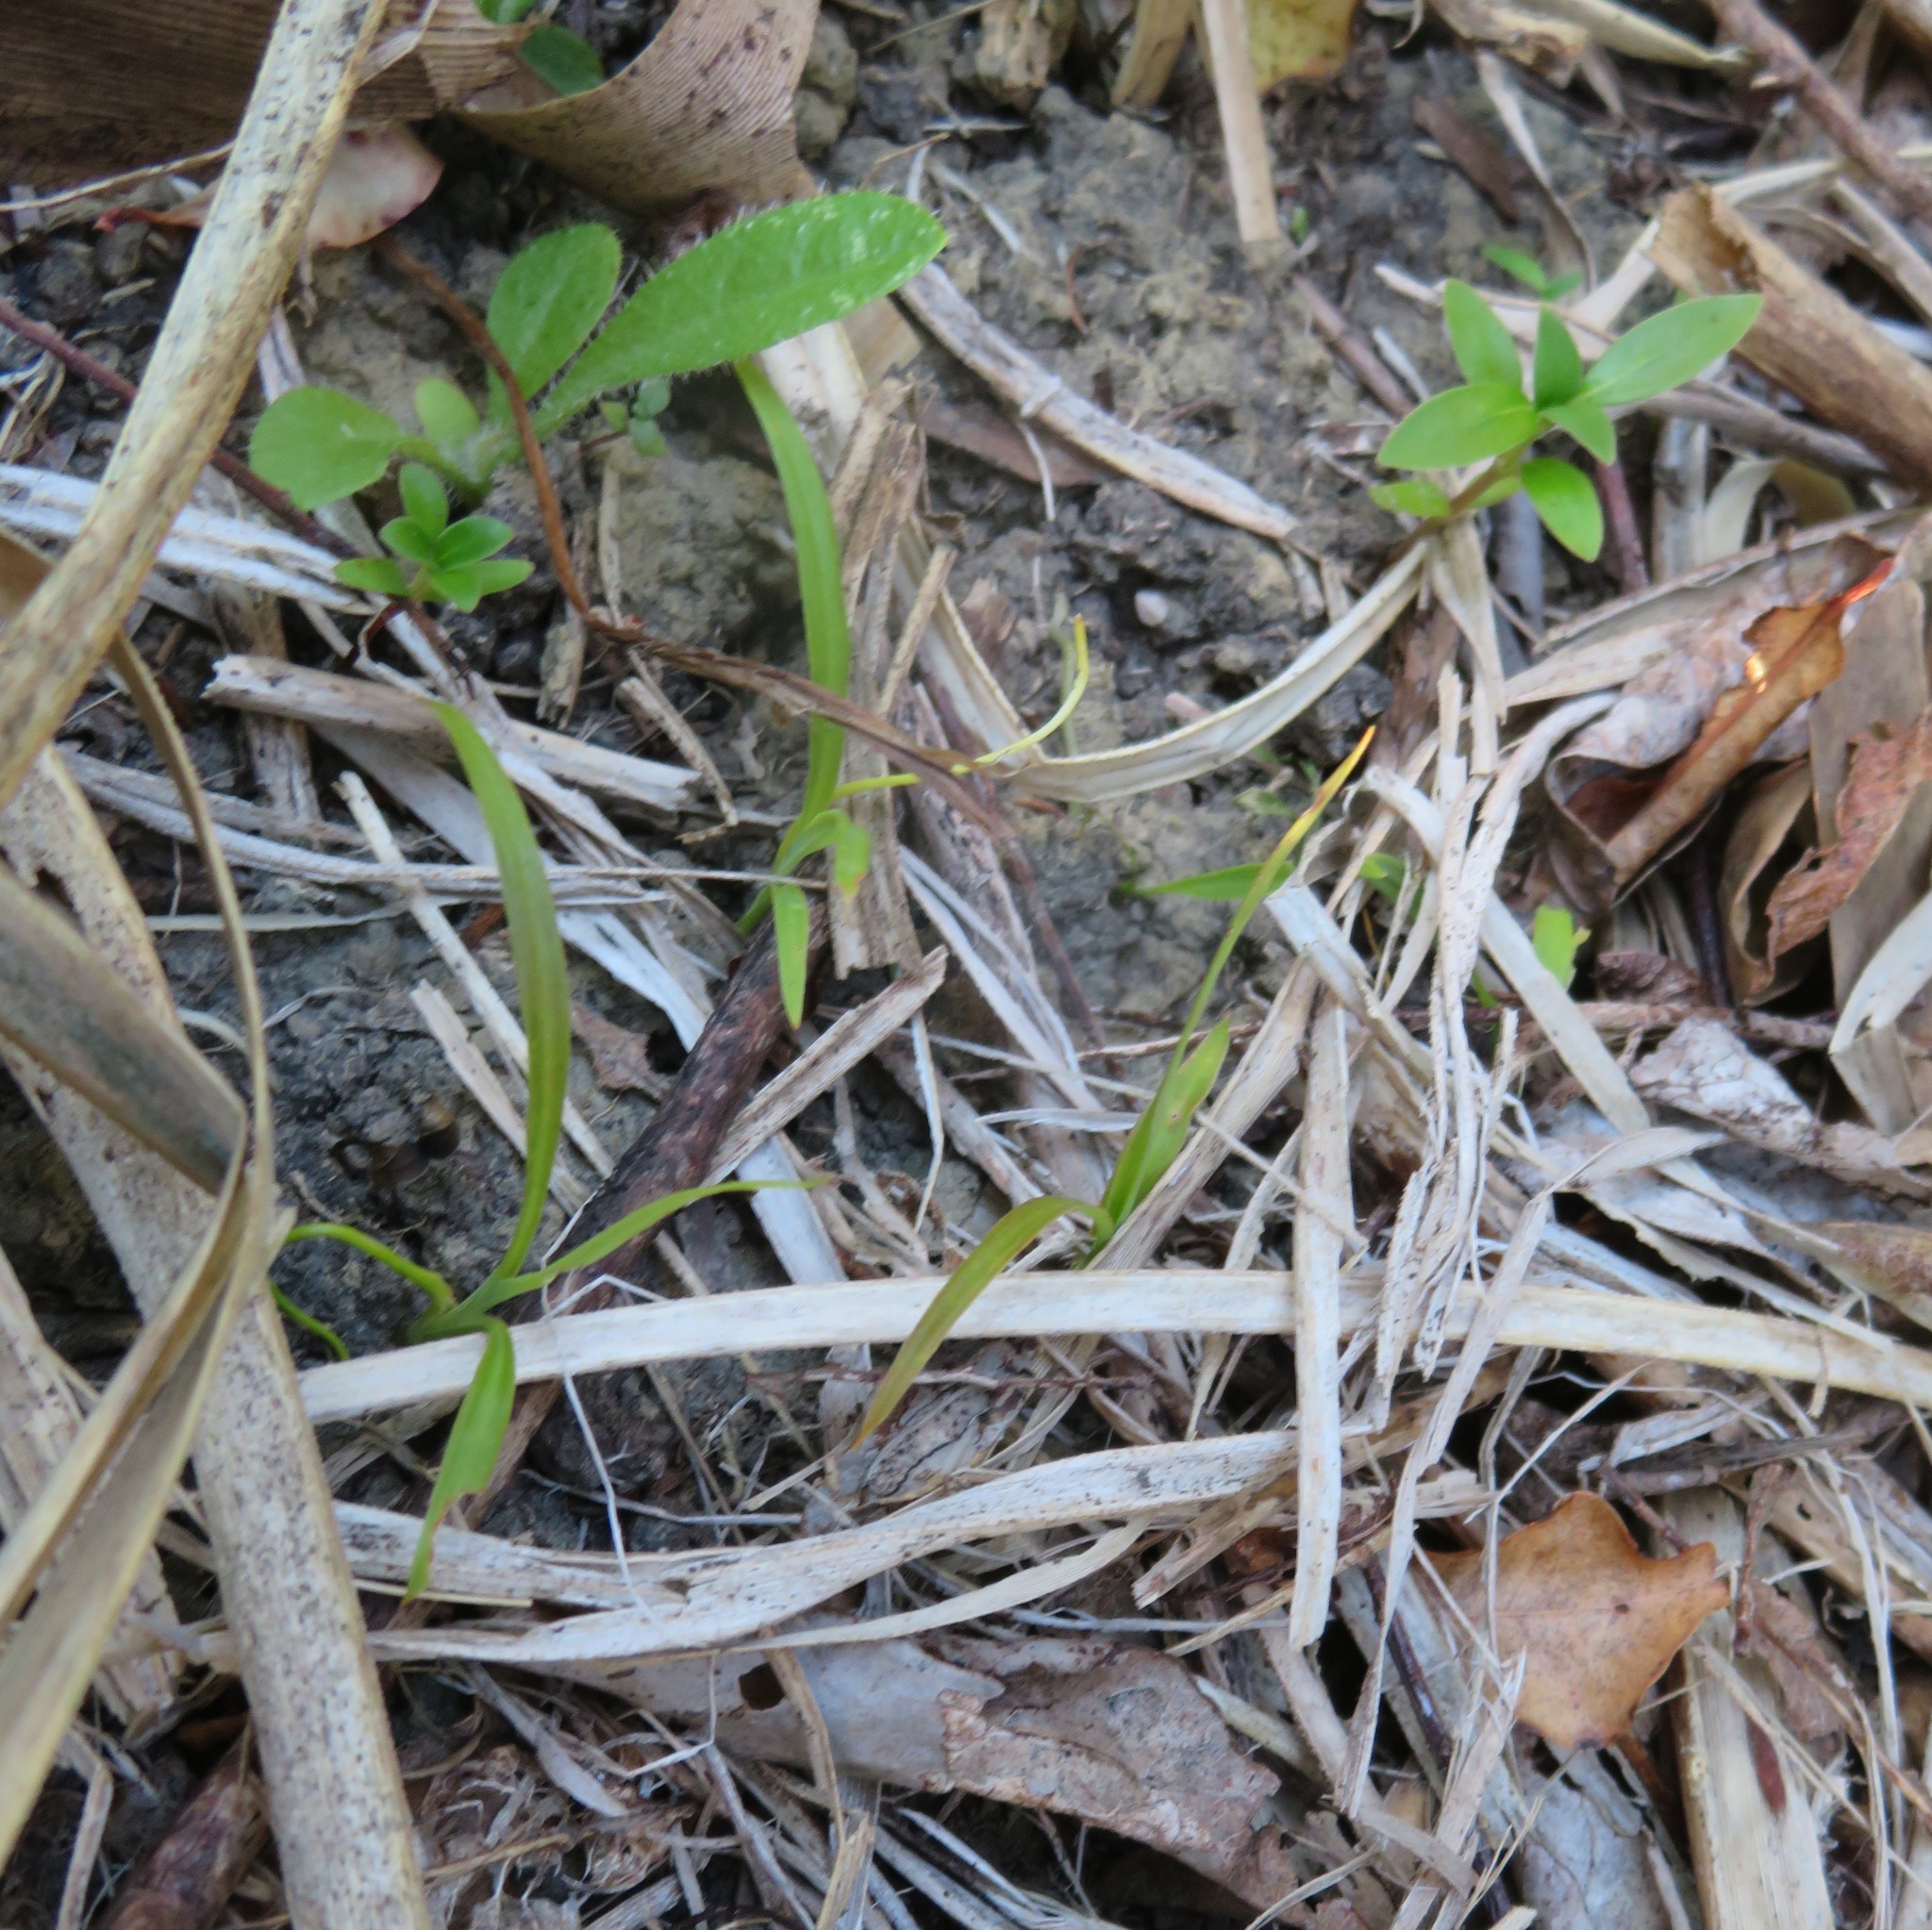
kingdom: Plantae
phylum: Tracheophyta
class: Liliopsida
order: Asparagales
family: Asparagaceae
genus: Cordyline
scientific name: Cordyline australis
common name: Cabbage-palm
